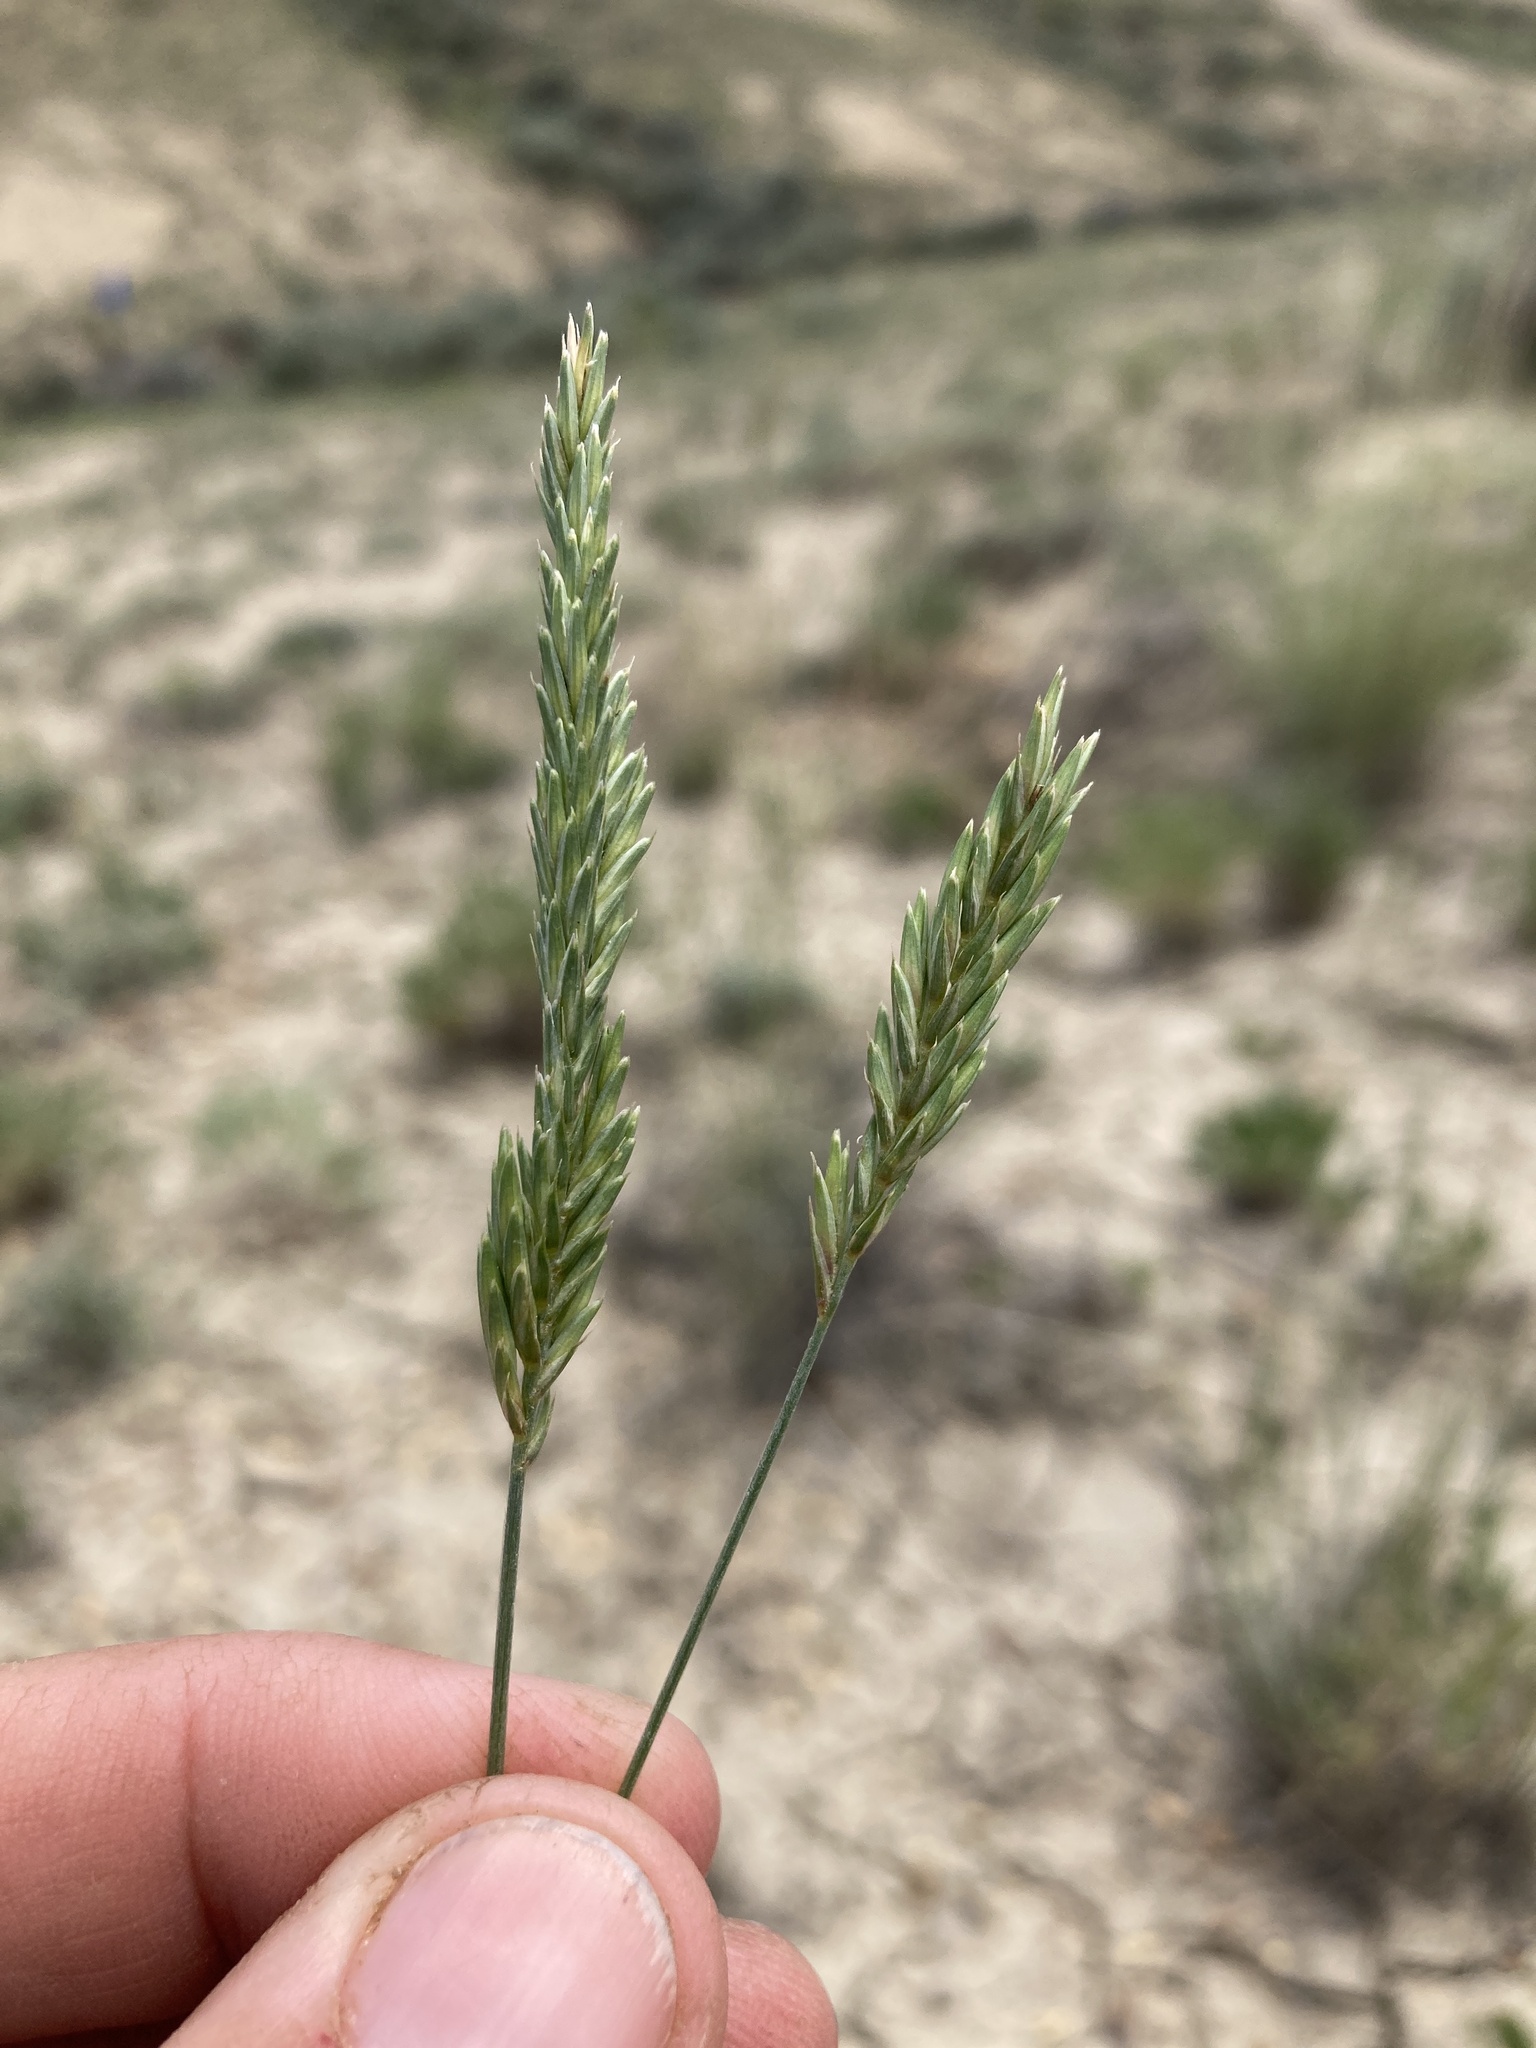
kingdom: Plantae
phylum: Tracheophyta
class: Liliopsida
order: Poales
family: Poaceae
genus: Agropyron
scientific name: Agropyron cristatum
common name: Crested wheatgrass
